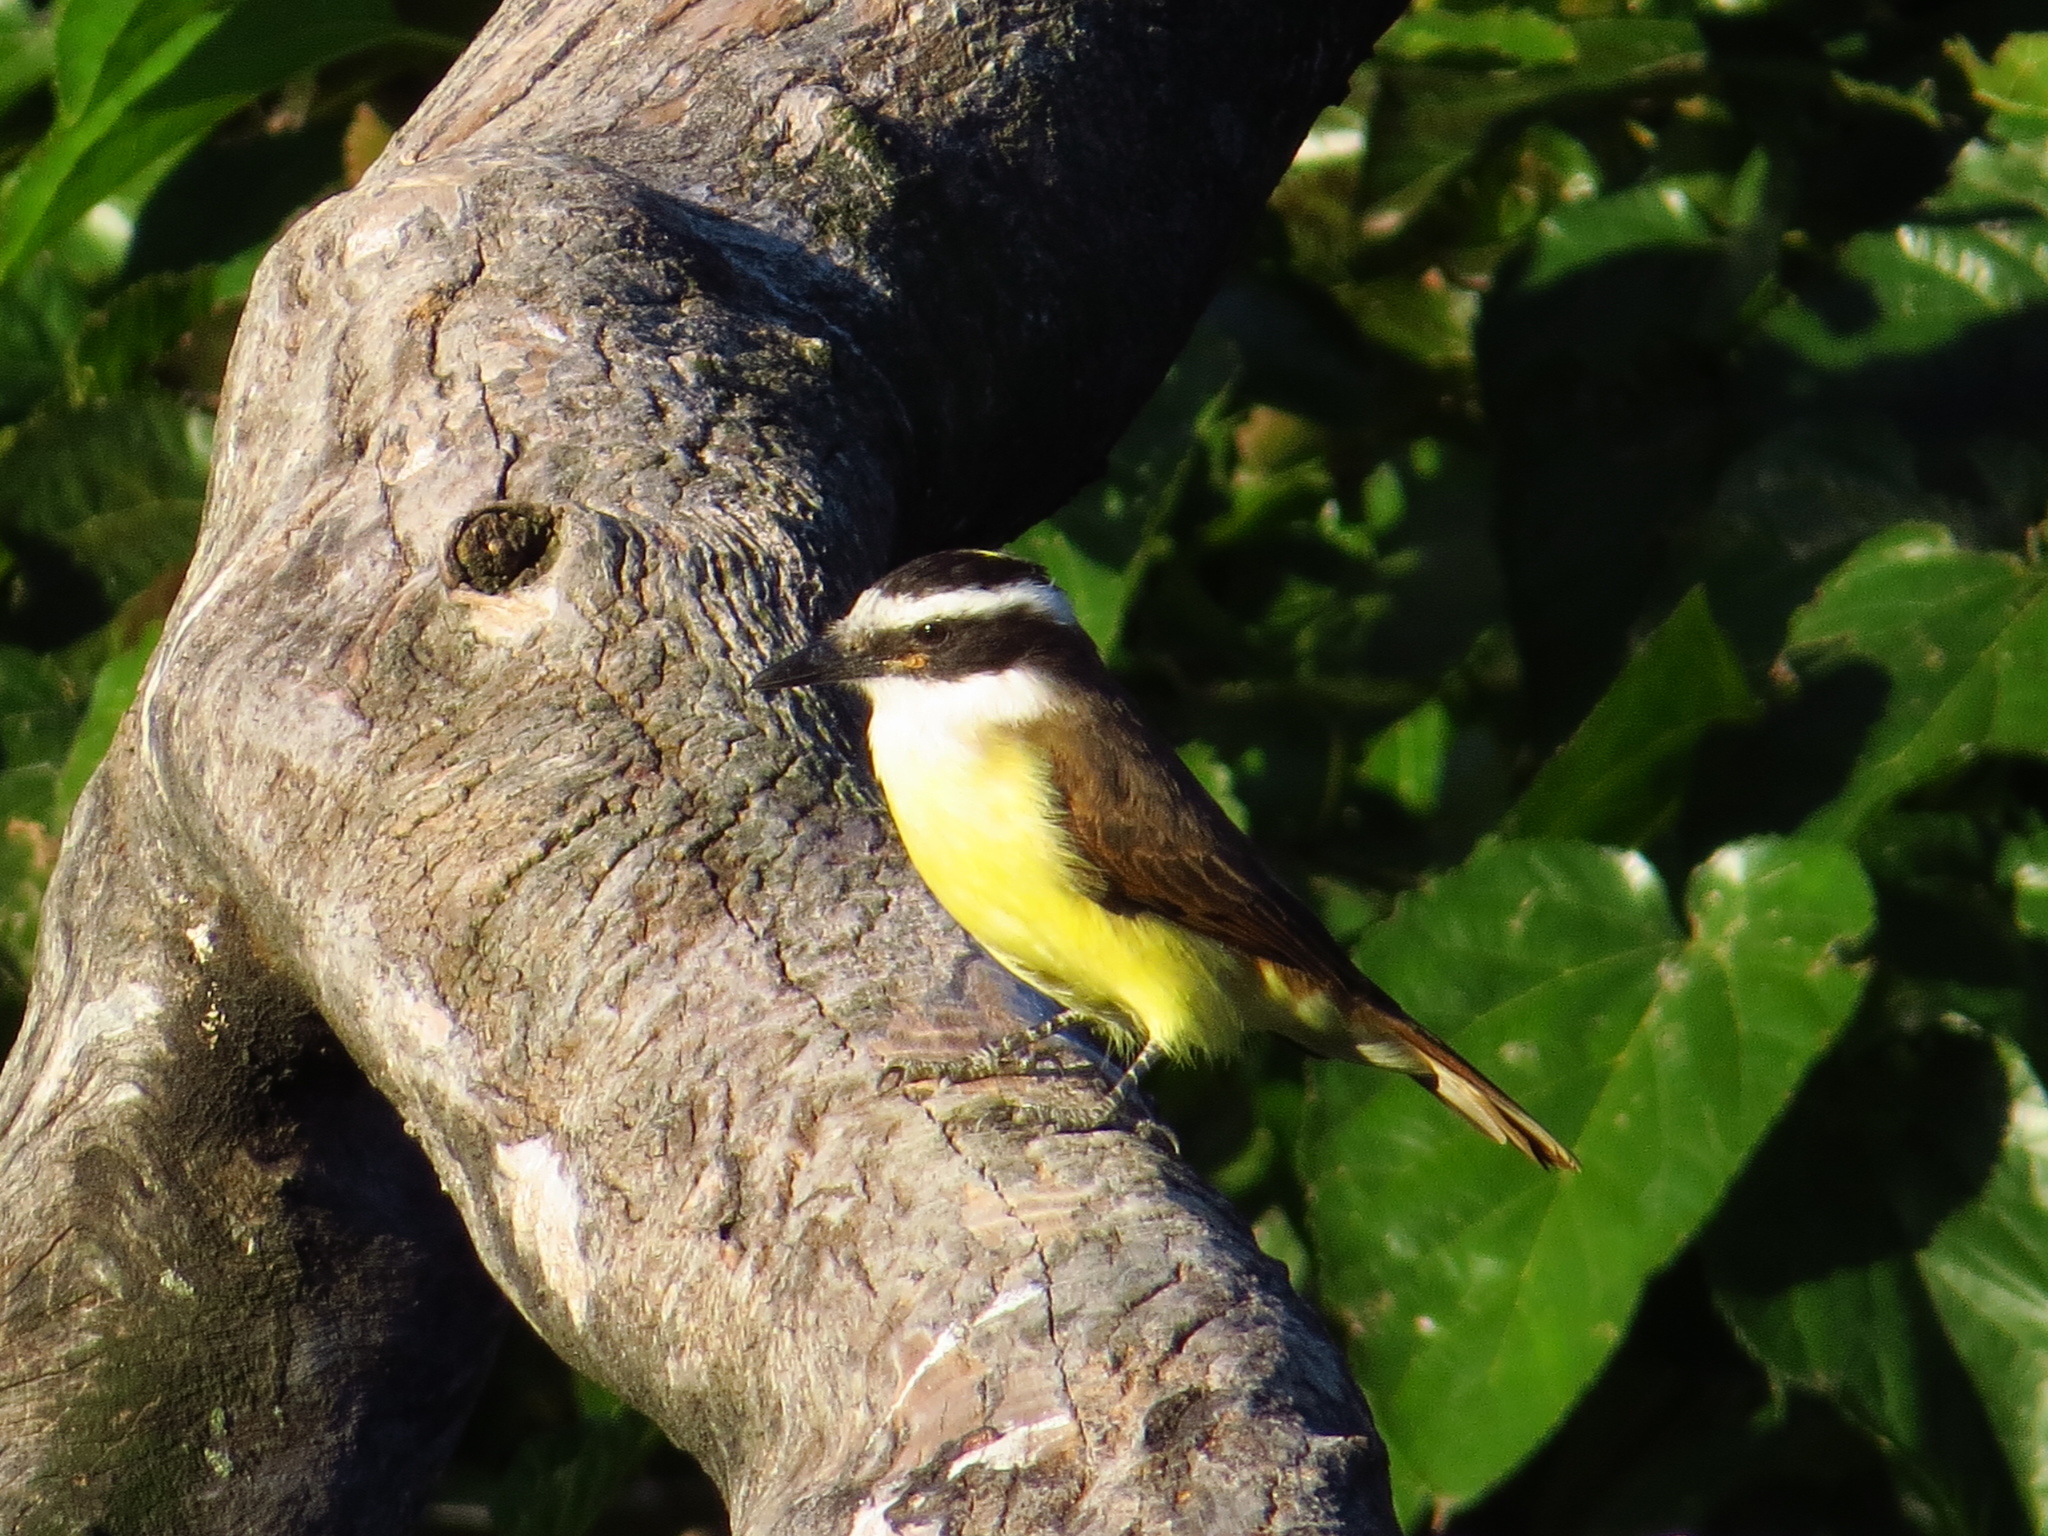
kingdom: Animalia
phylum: Chordata
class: Aves
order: Passeriformes
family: Tyrannidae
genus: Pitangus
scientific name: Pitangus sulphuratus
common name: Great kiskadee
